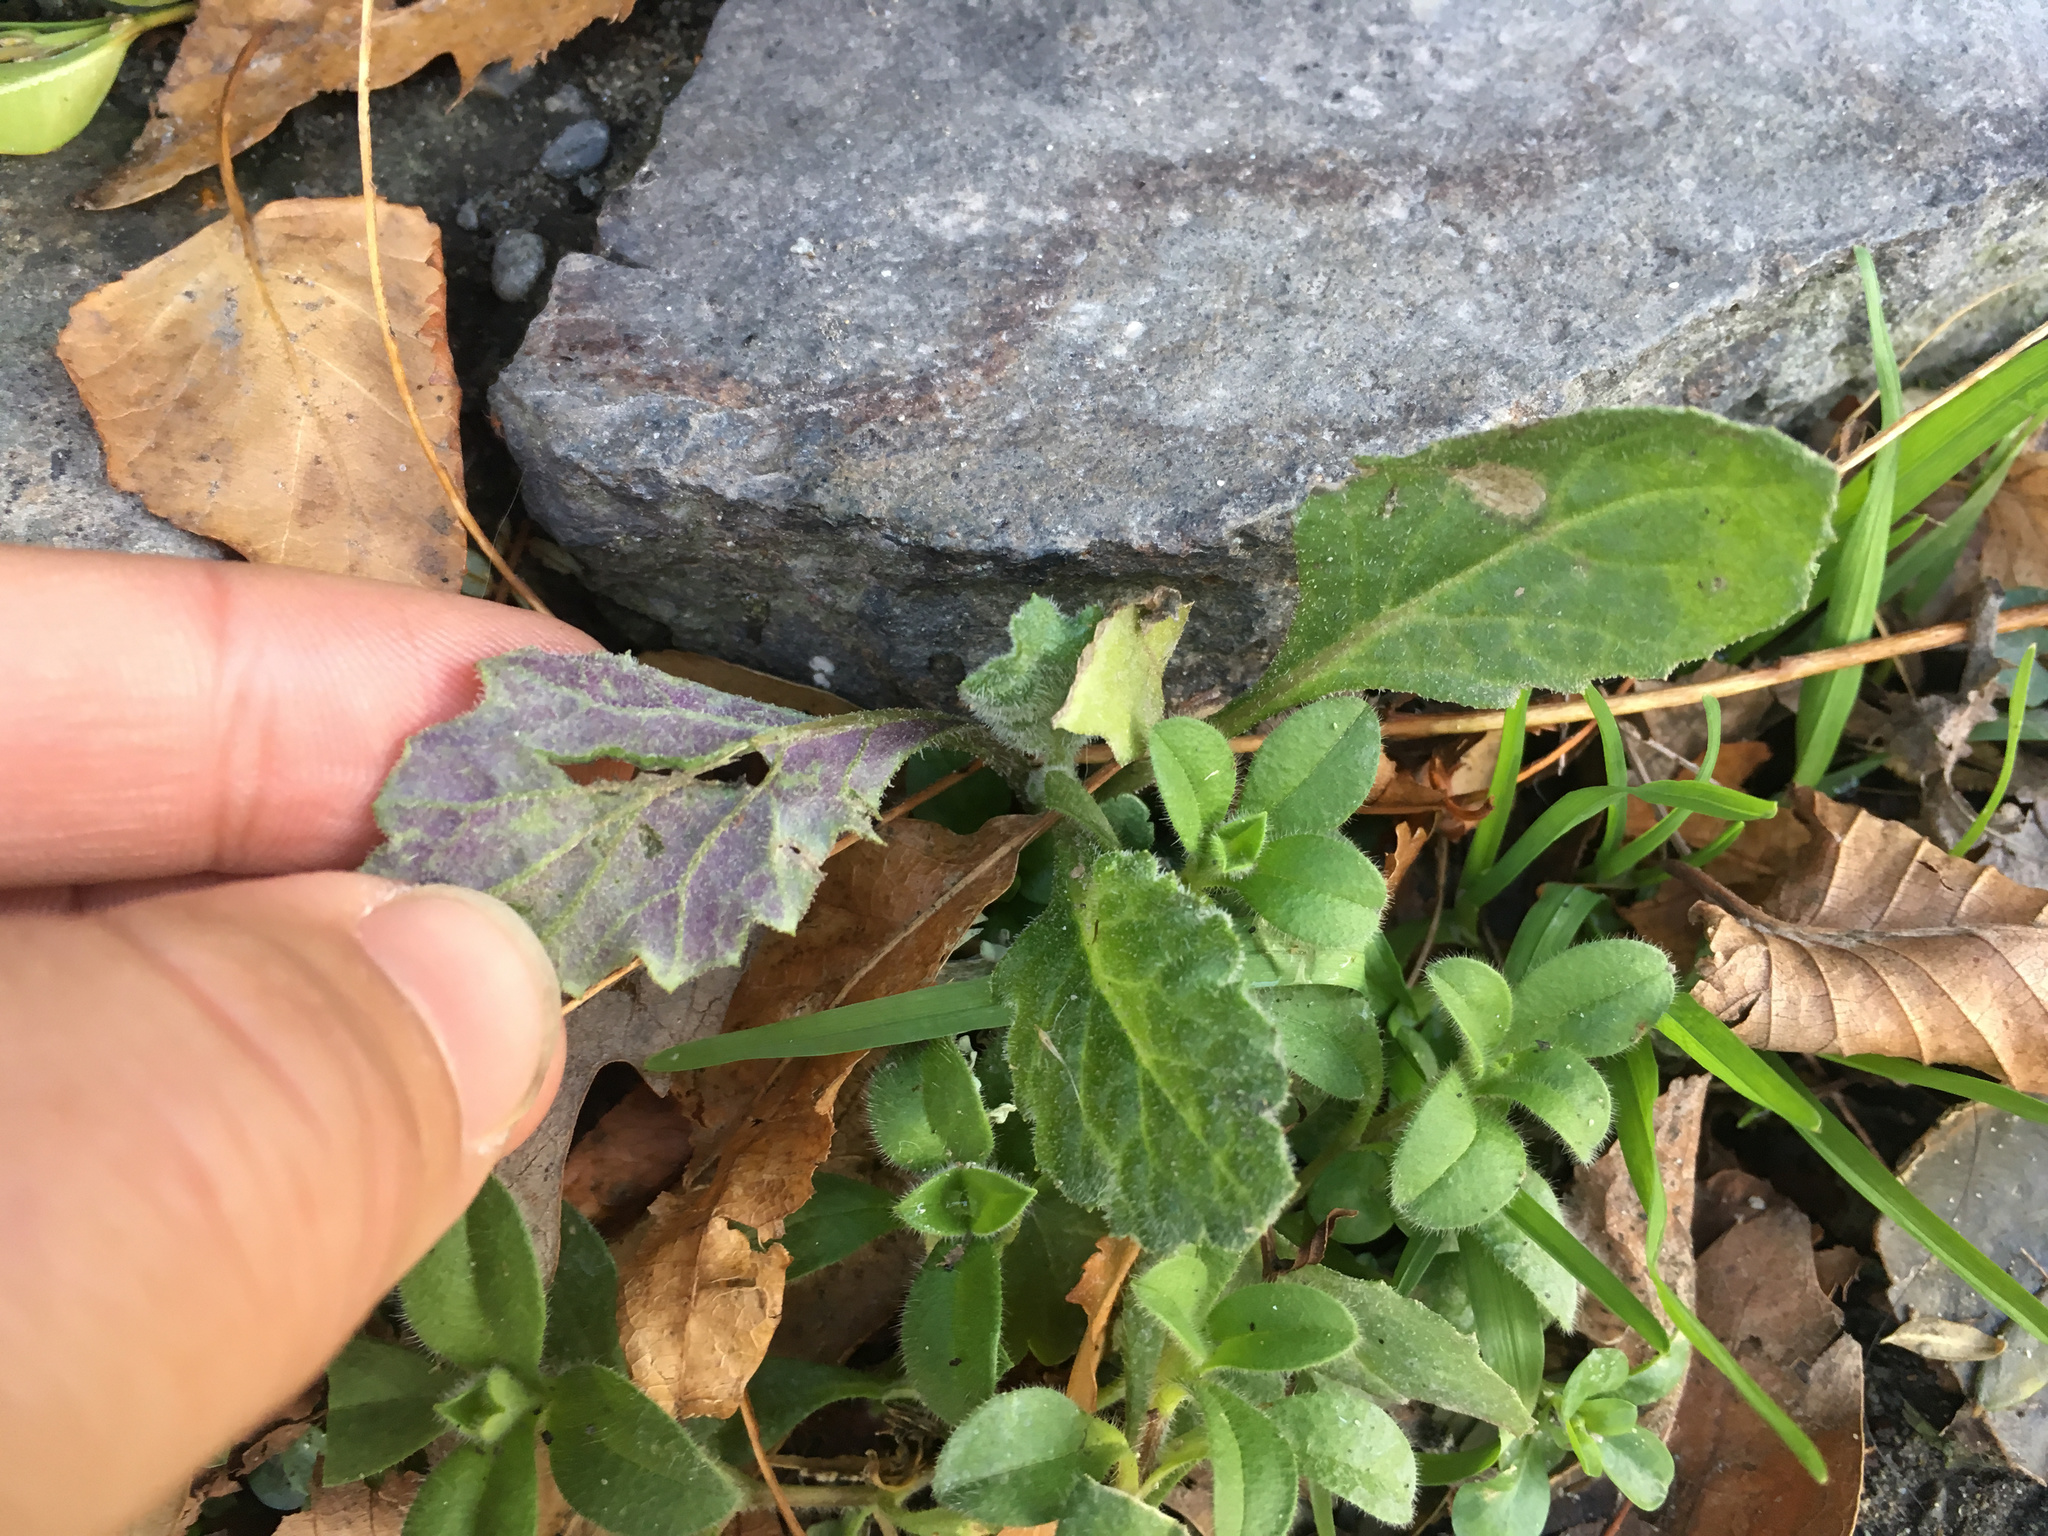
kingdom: Plantae
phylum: Tracheophyta
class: Magnoliopsida
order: Asterales
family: Asteraceae
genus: Senecio
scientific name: Senecio glomeratus
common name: Cutleaf burnweed
